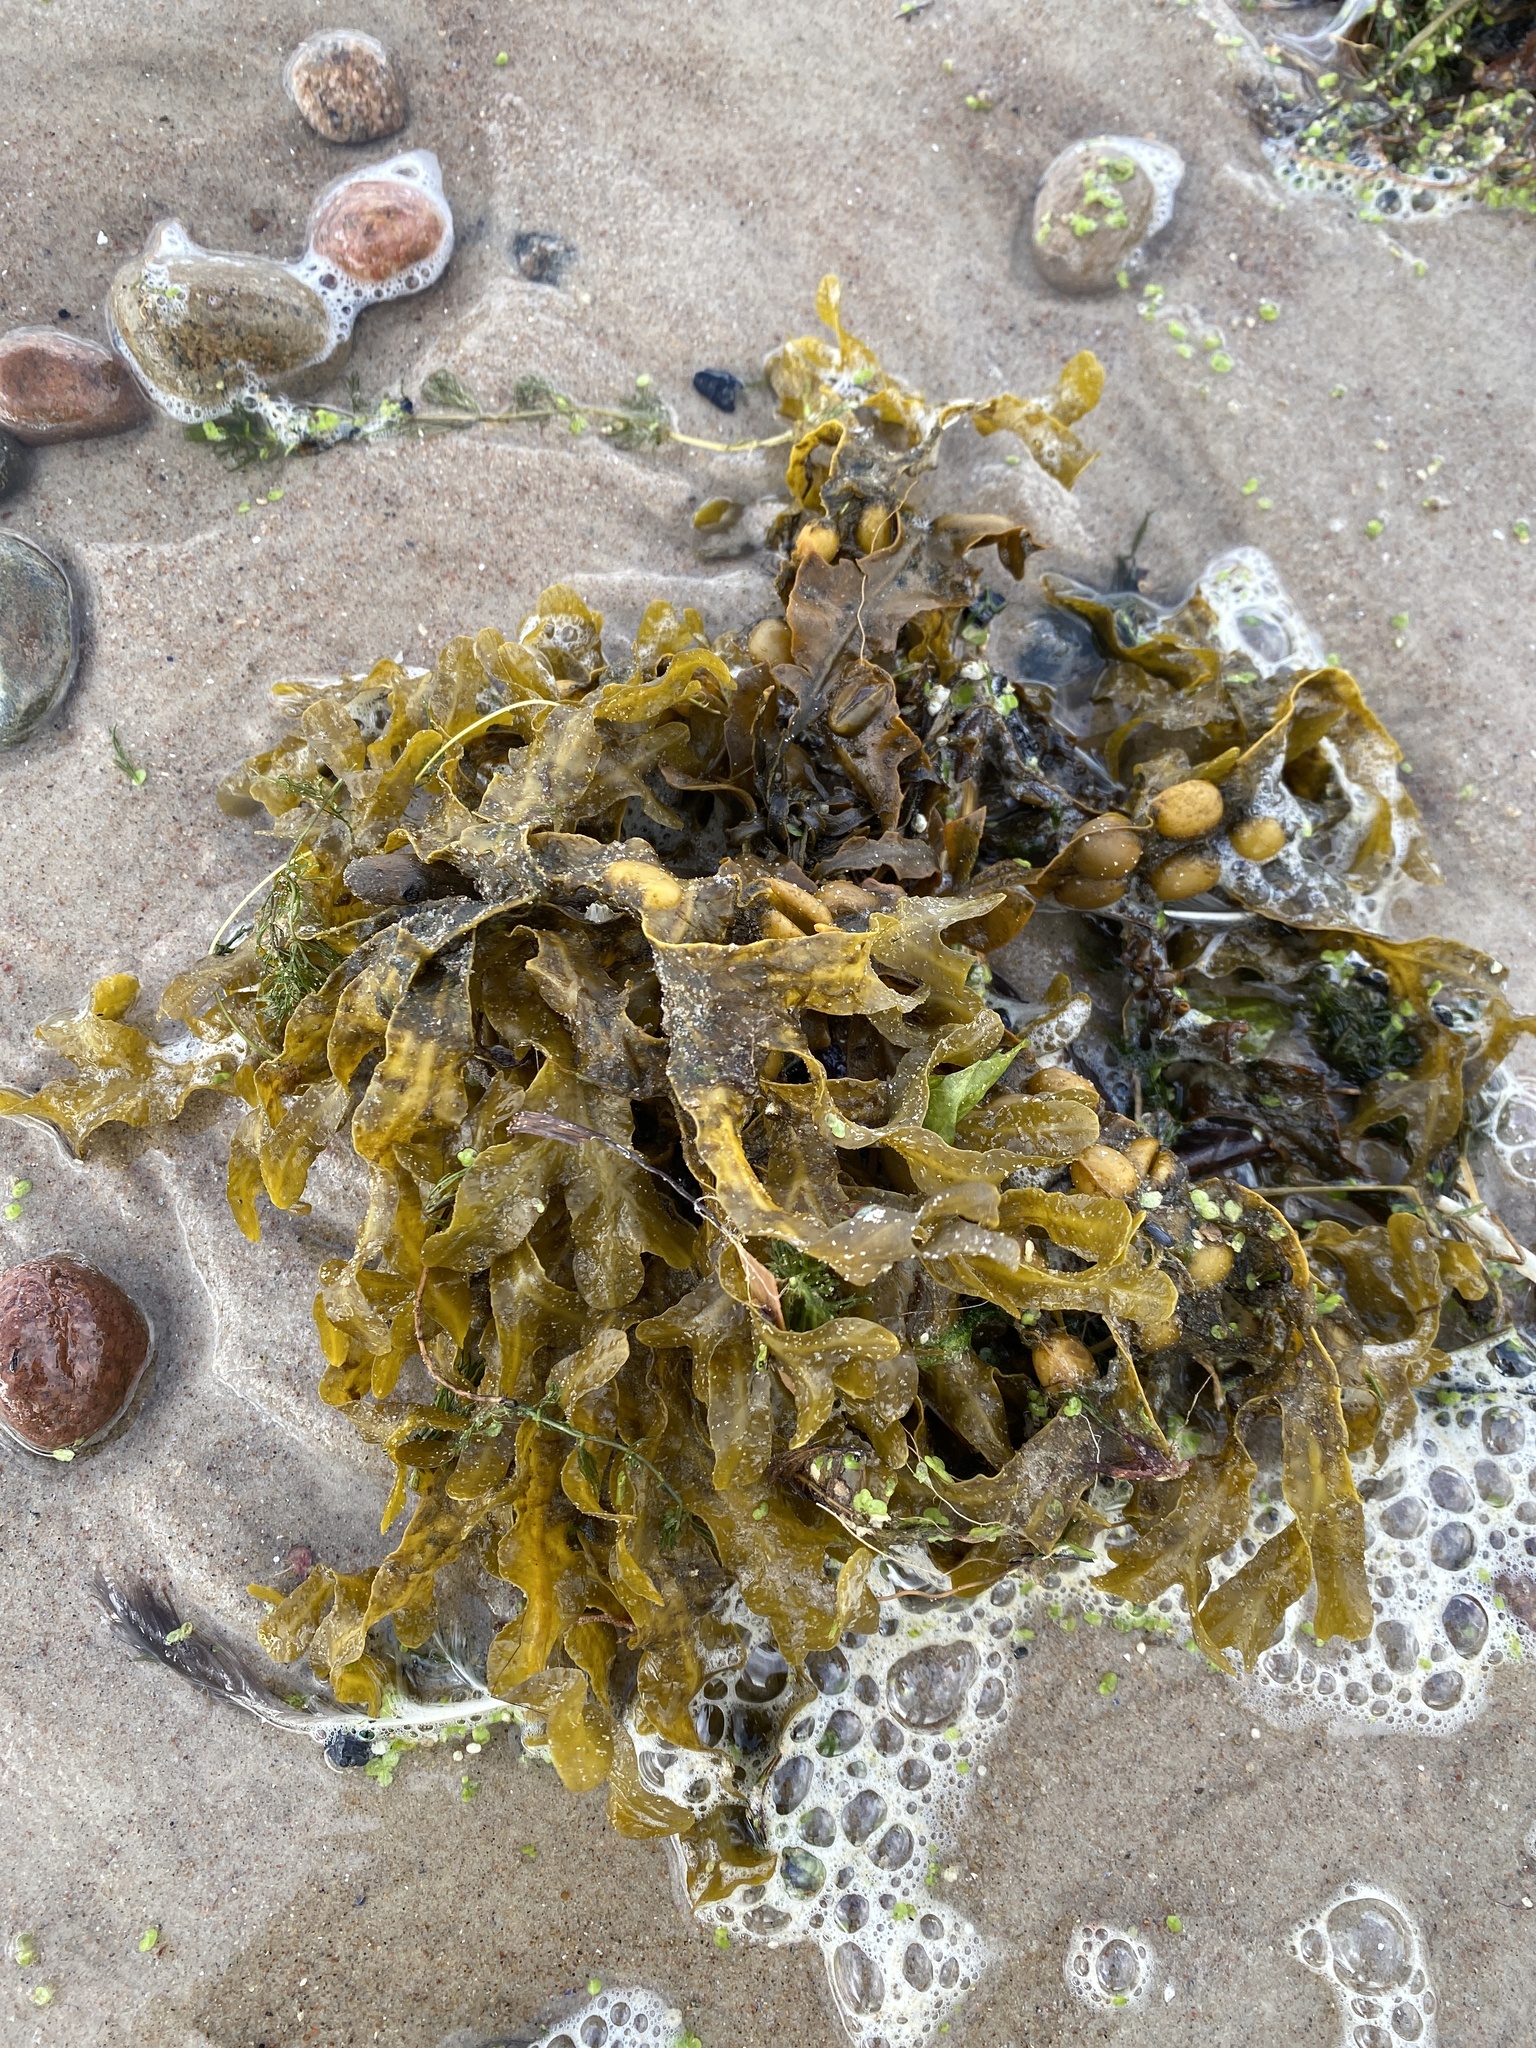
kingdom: Chromista
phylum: Ochrophyta
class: Phaeophyceae
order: Fucales
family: Fucaceae
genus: Fucus
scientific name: Fucus vesiculosus
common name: Bladder wrack
